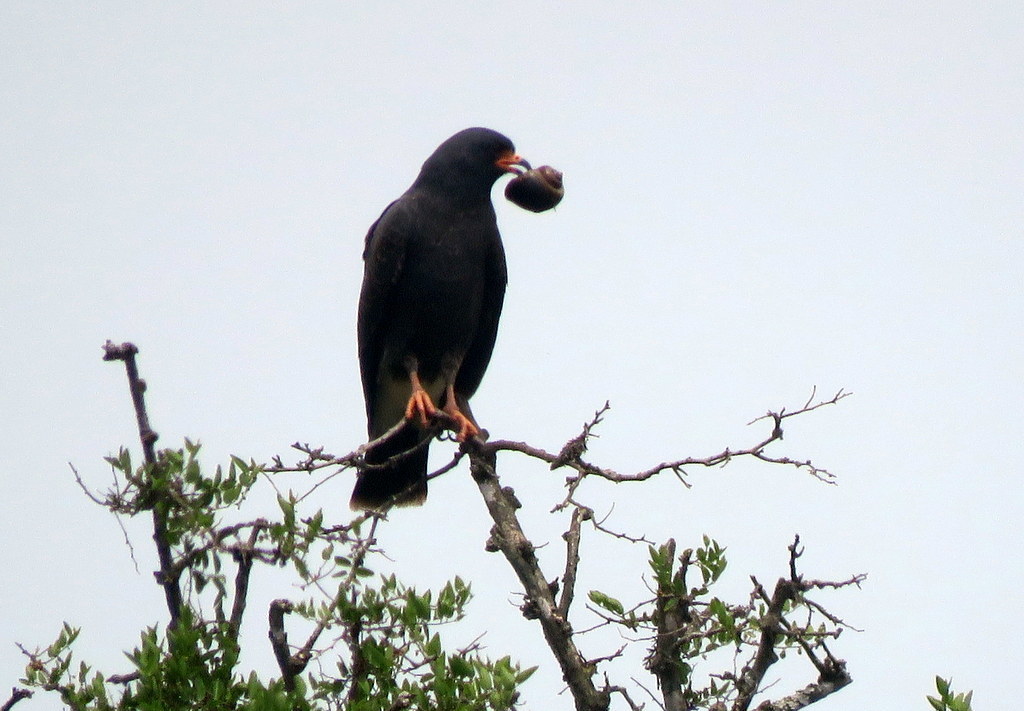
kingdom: Animalia
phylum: Chordata
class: Aves
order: Accipitriformes
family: Accipitridae
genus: Rostrhamus
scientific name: Rostrhamus sociabilis
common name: Snail kite
